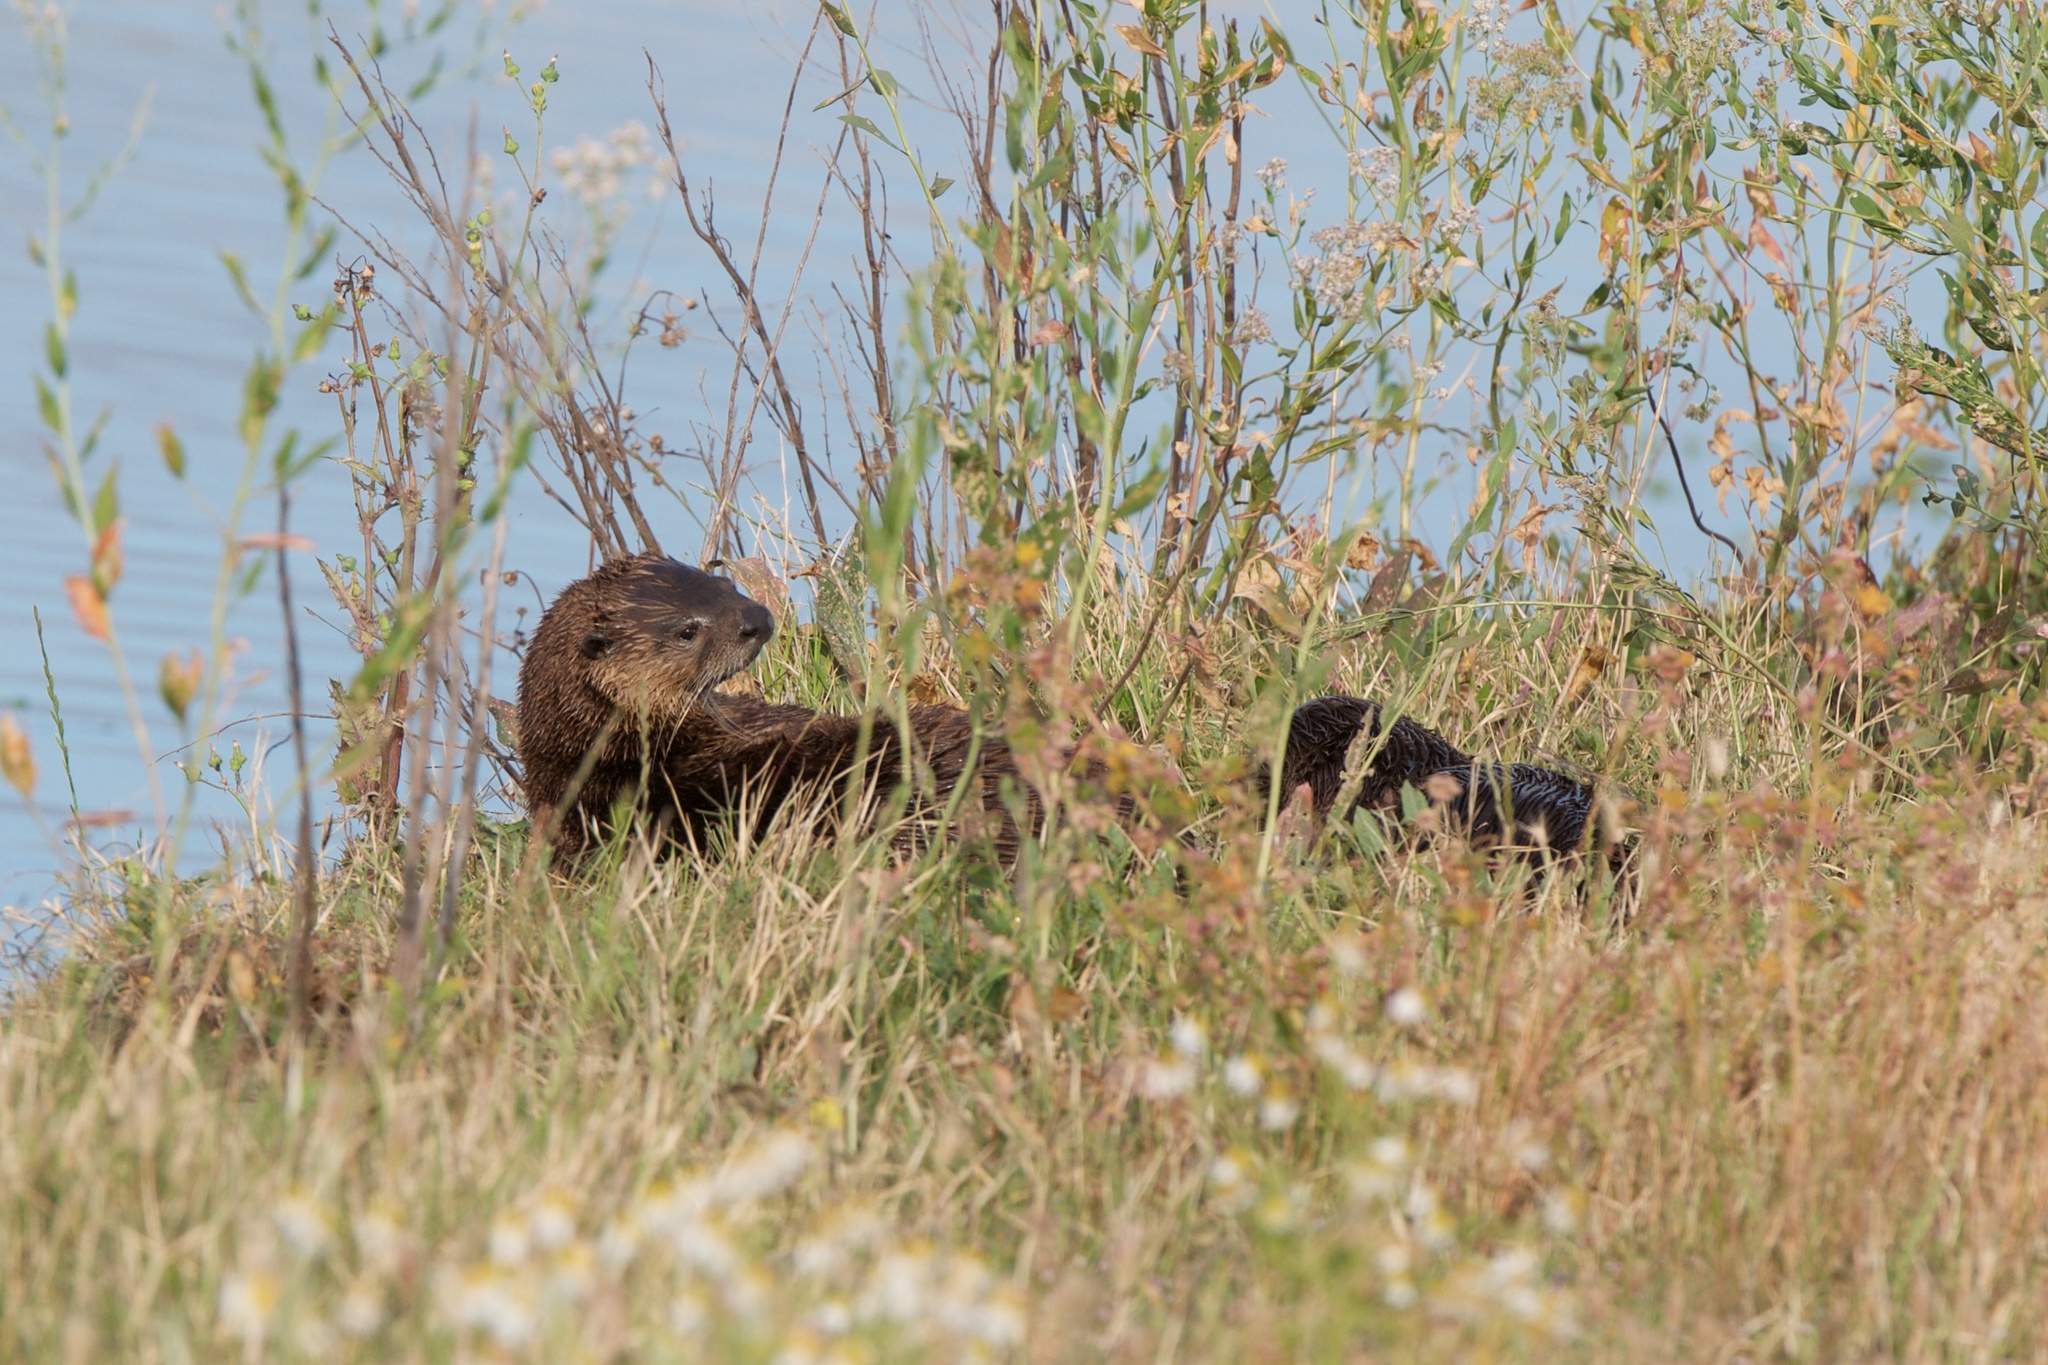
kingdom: Animalia
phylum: Chordata
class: Mammalia
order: Carnivora
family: Mustelidae
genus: Lontra
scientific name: Lontra canadensis
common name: North american river otter
